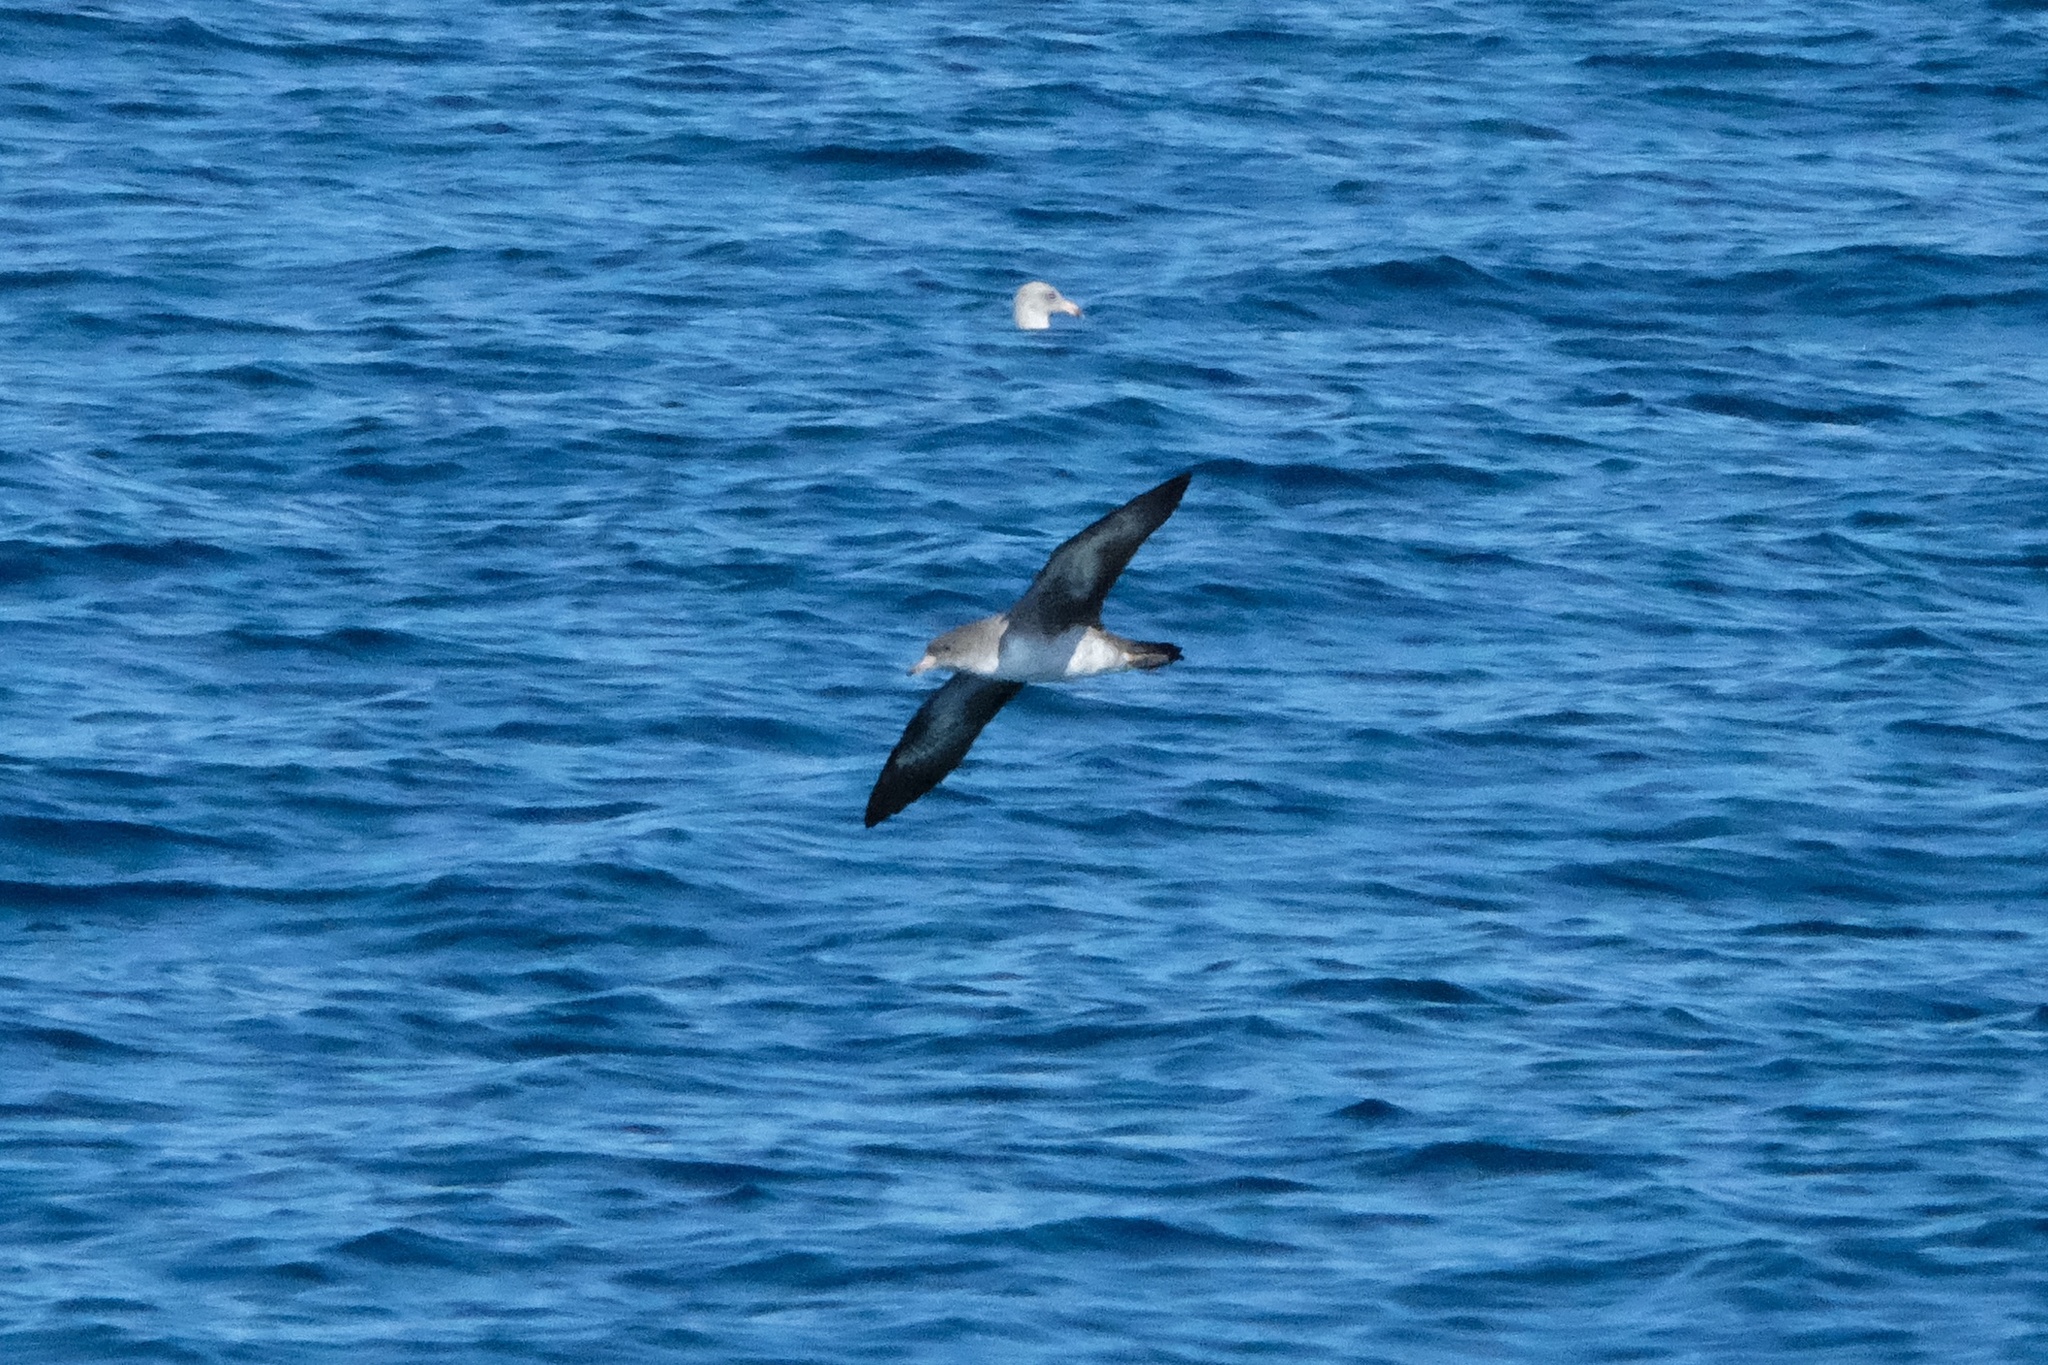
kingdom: Animalia
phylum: Chordata
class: Aves
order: Procellariiformes
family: Procellariidae
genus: Puffinus
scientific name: Puffinus creatopus
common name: Pink-footed shearwater
